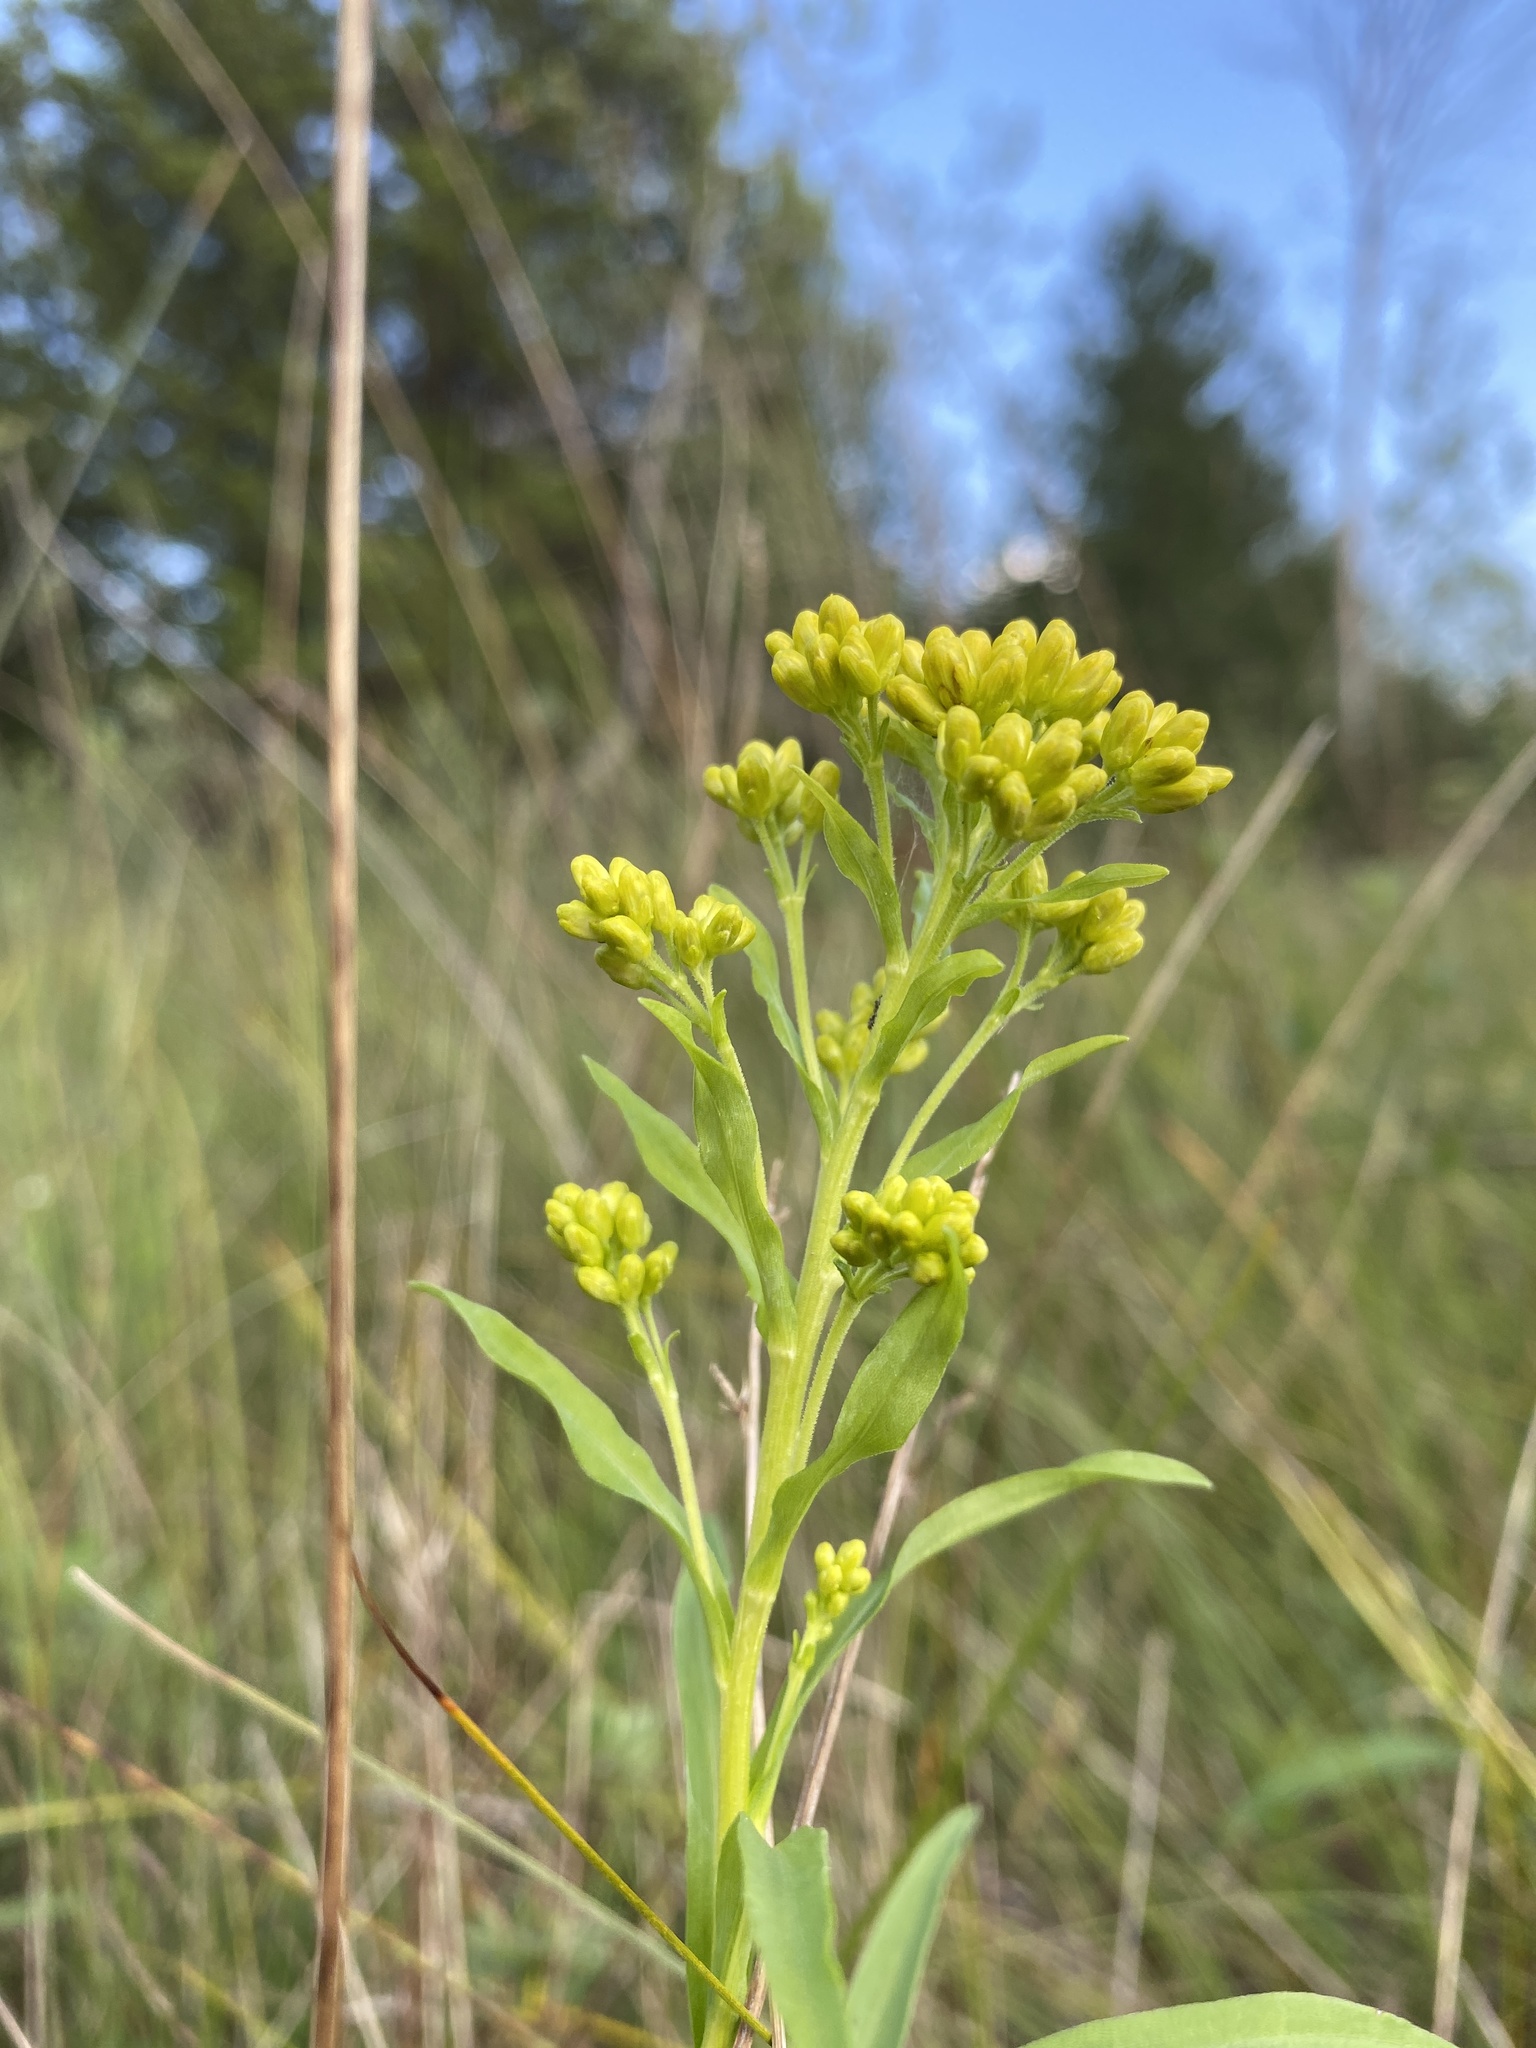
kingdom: Plantae
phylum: Tracheophyta
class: Magnoliopsida
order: Asterales
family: Asteraceae
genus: Solidago
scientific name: Solidago riddellii
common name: Riddell's goldenrod
